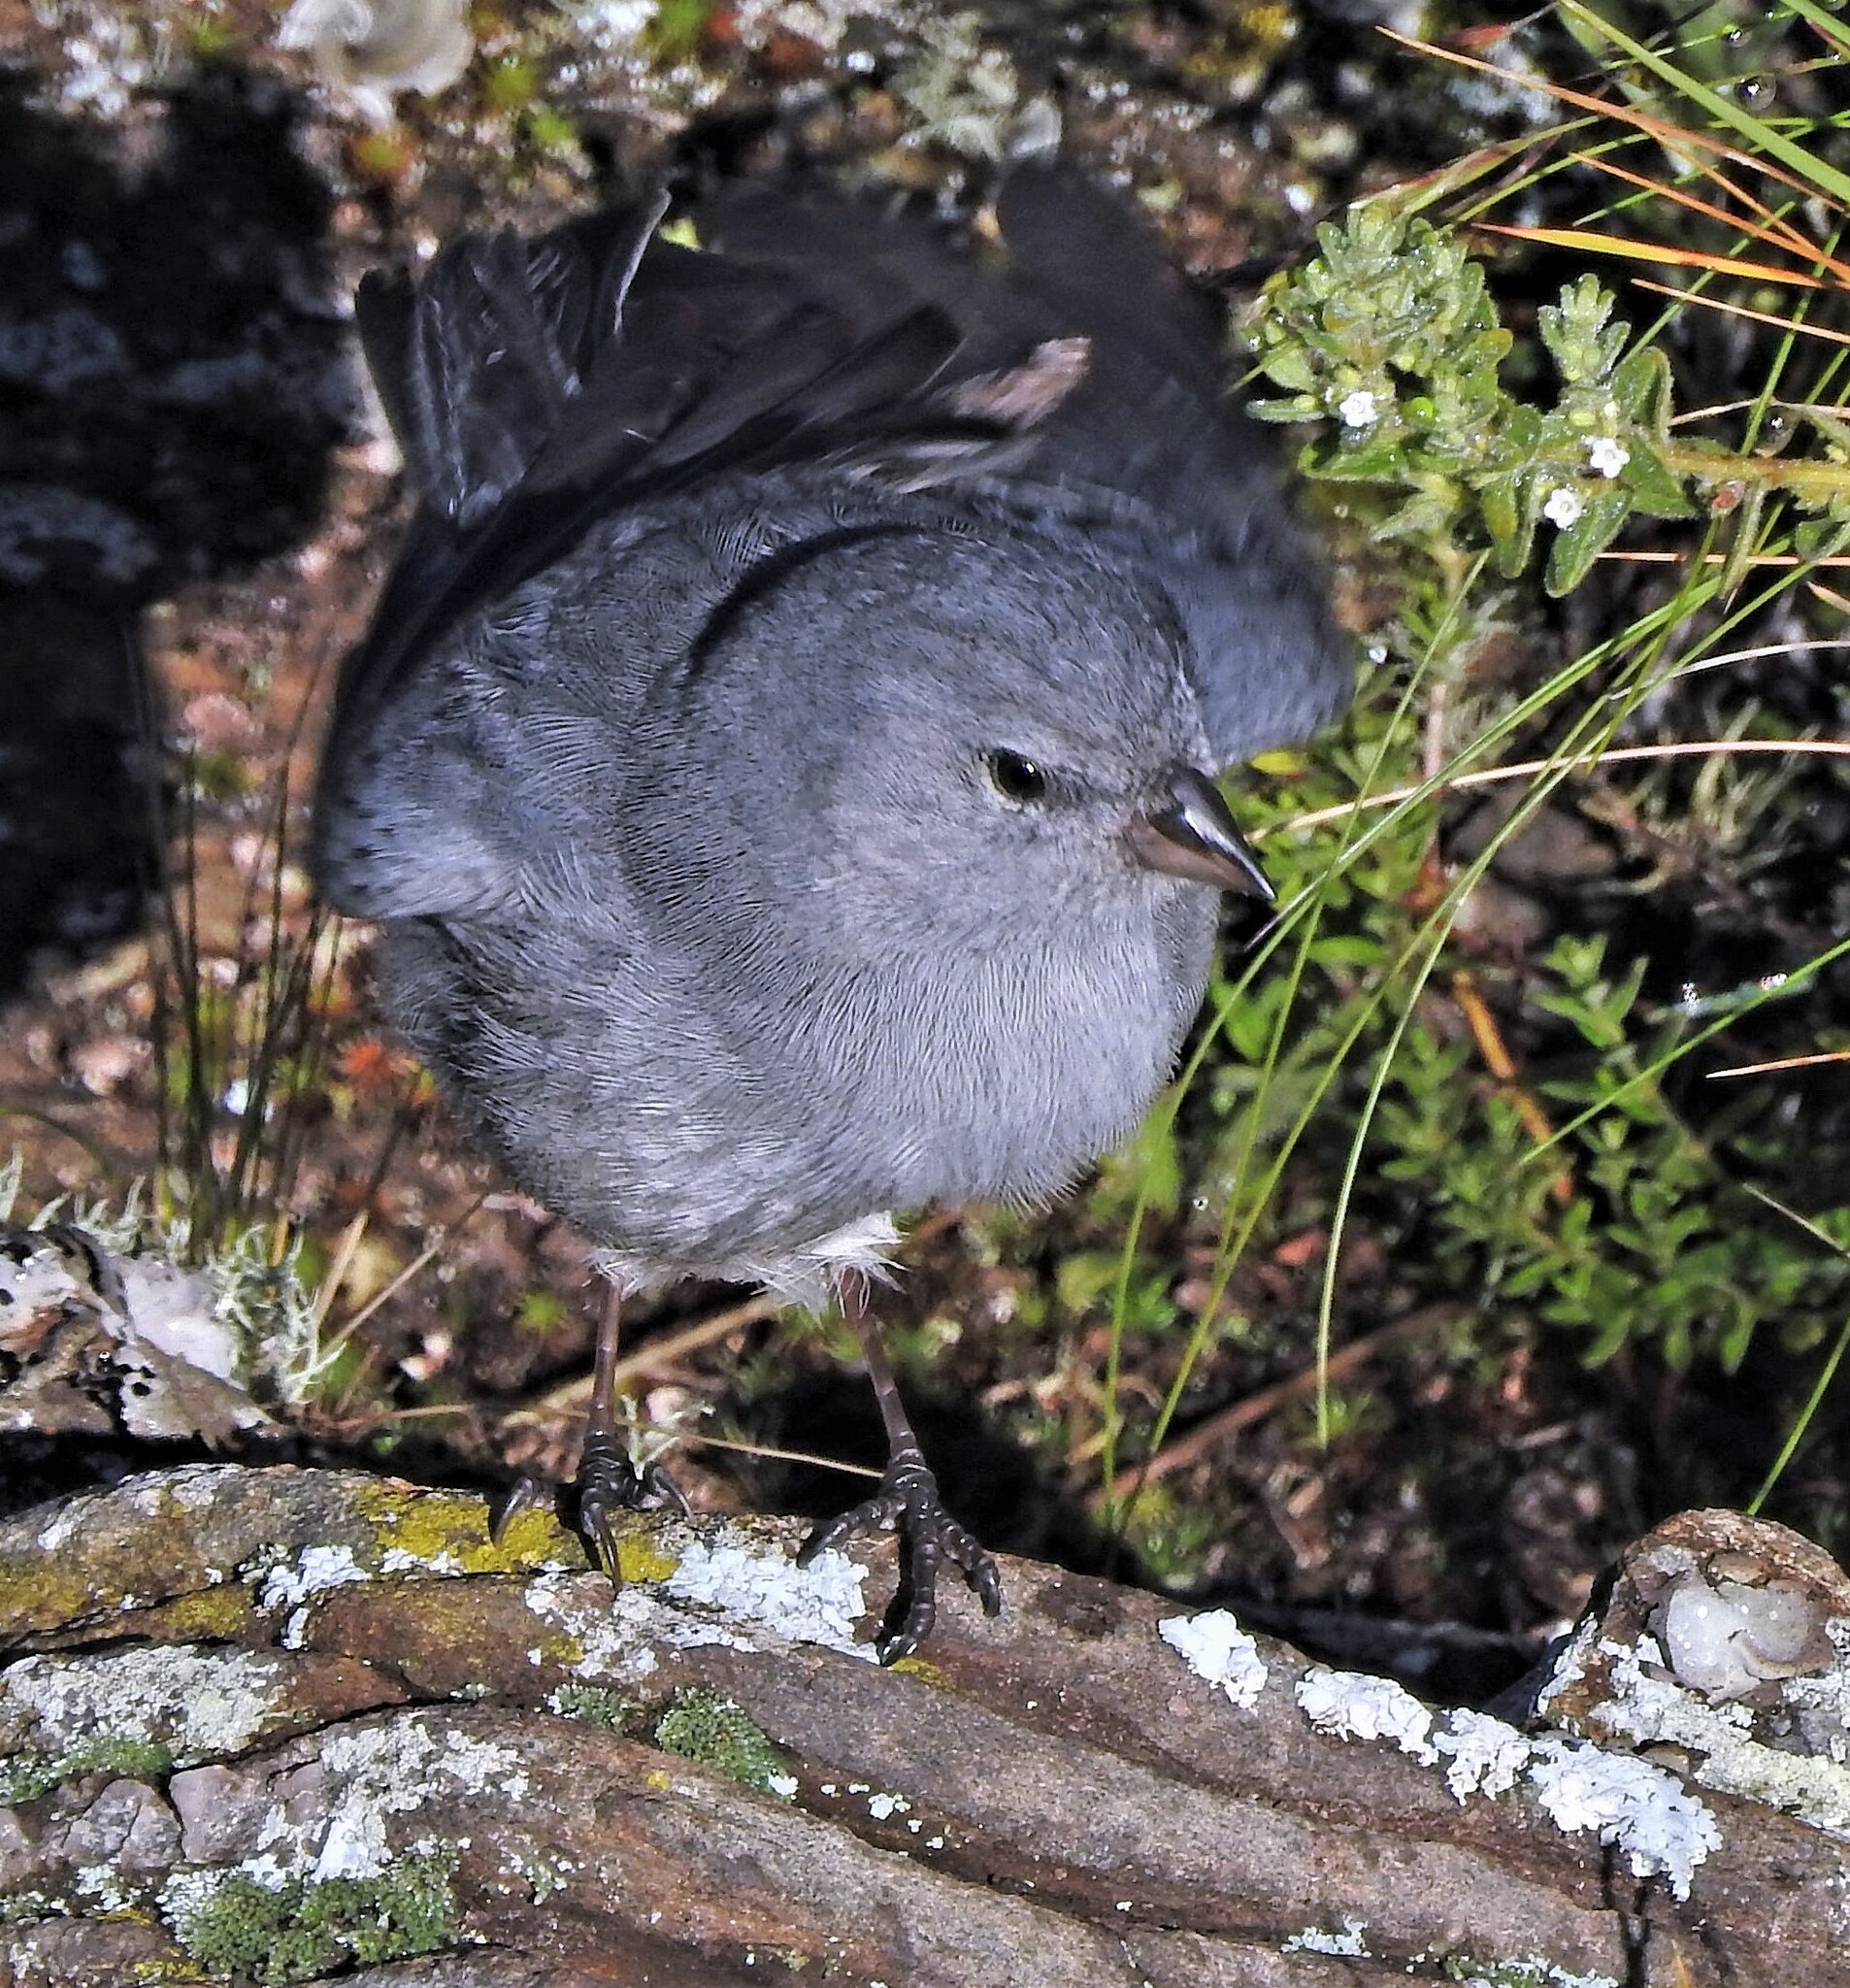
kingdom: Animalia
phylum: Chordata
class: Aves
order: Passeriformes
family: Thraupidae
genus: Geospizopsis
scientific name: Geospizopsis unicolor
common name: Plumbeous sierra-finch
